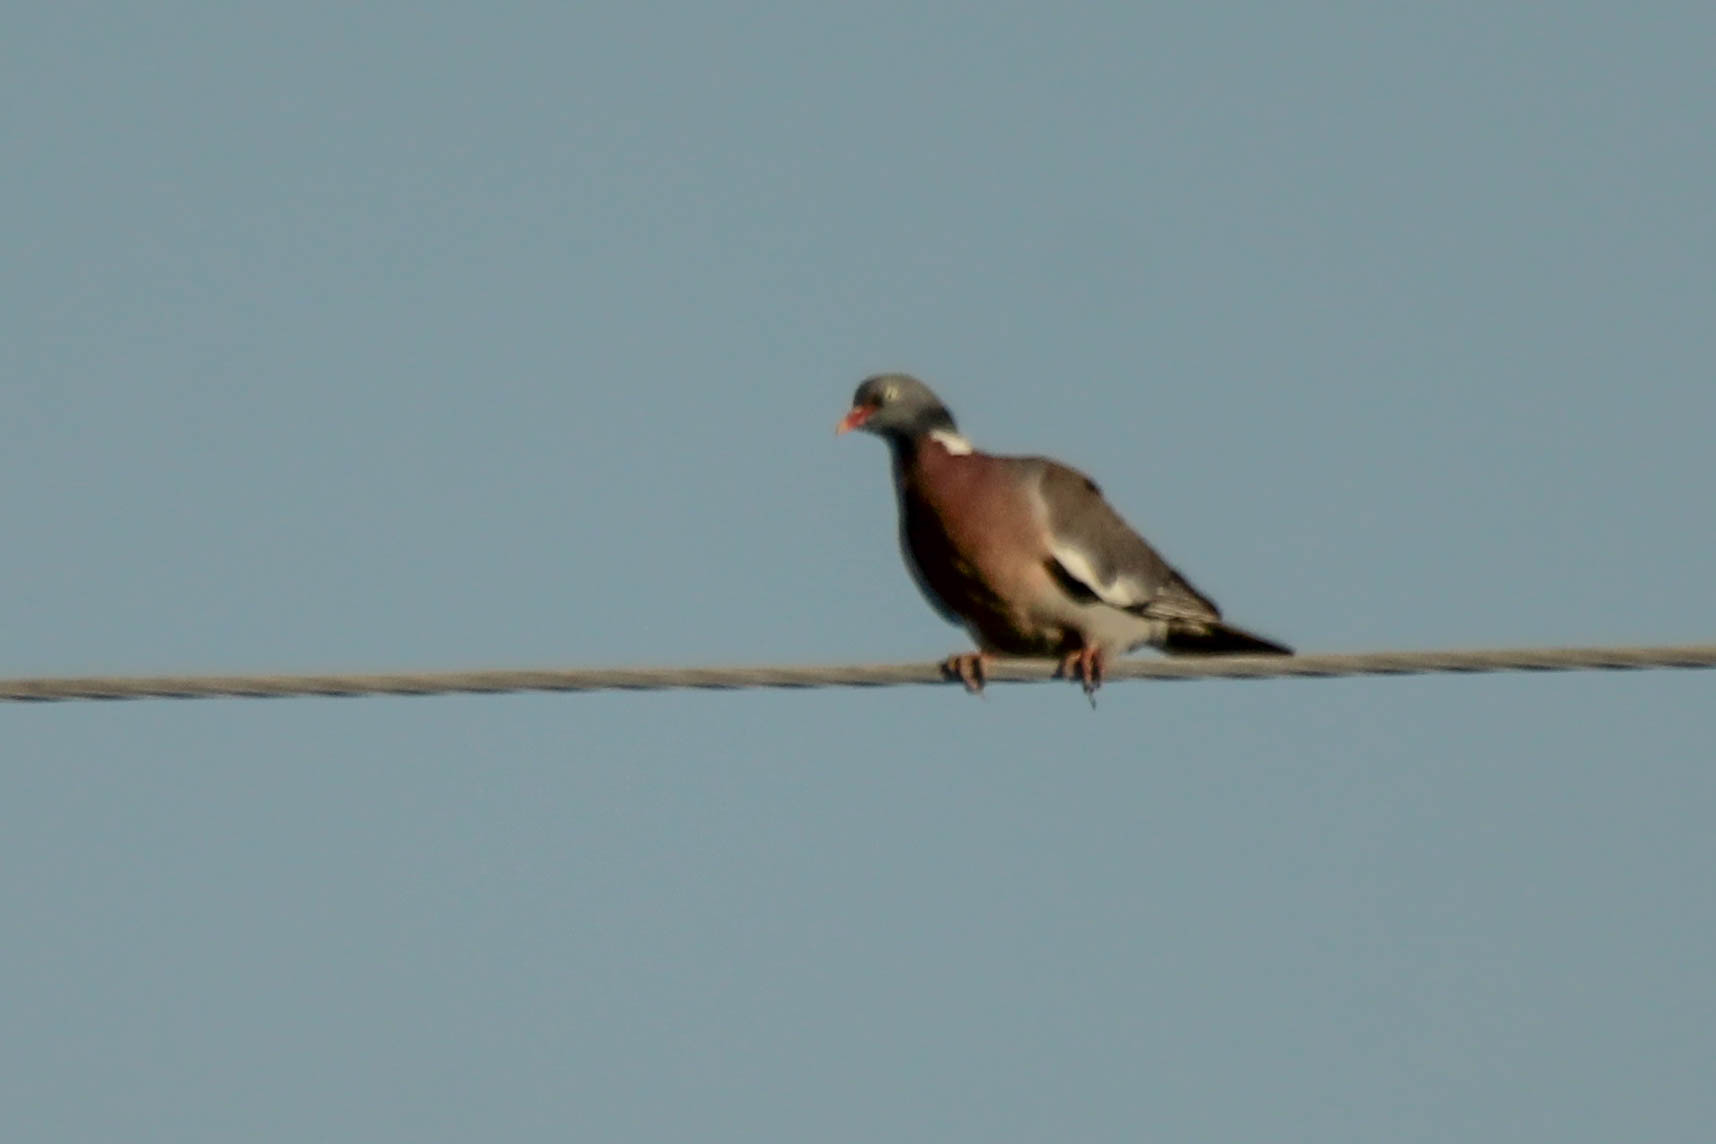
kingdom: Animalia
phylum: Chordata
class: Aves
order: Columbiformes
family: Columbidae
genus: Columba
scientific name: Columba palumbus
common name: Common wood pigeon
